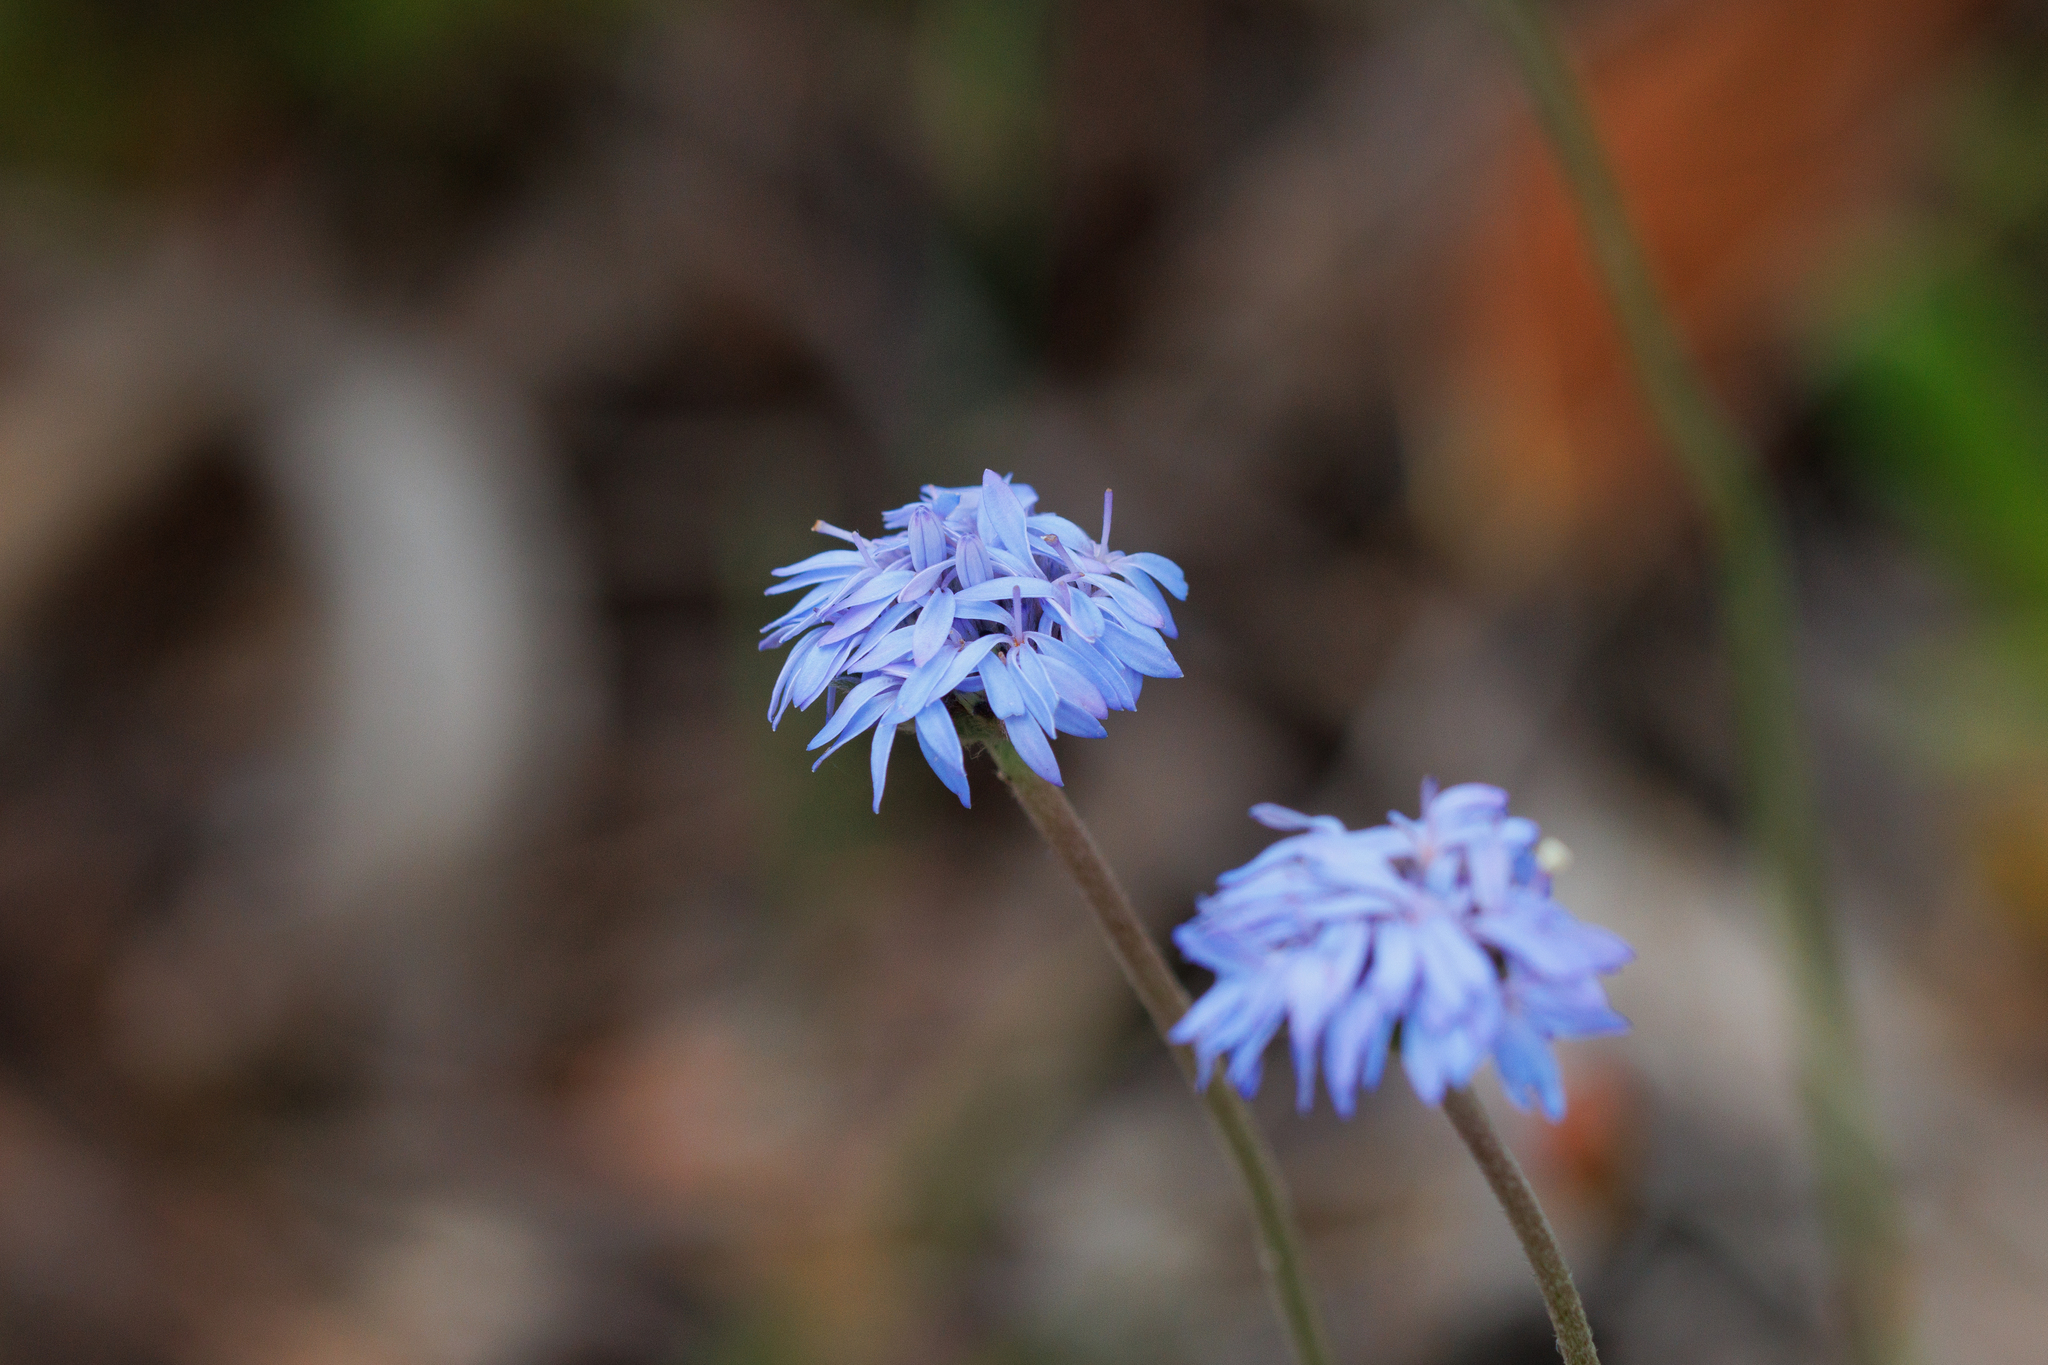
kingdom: Plantae
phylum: Tracheophyta
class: Magnoliopsida
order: Asterales
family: Goodeniaceae
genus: Brunonia
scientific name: Brunonia australis
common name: Blue pincushion
